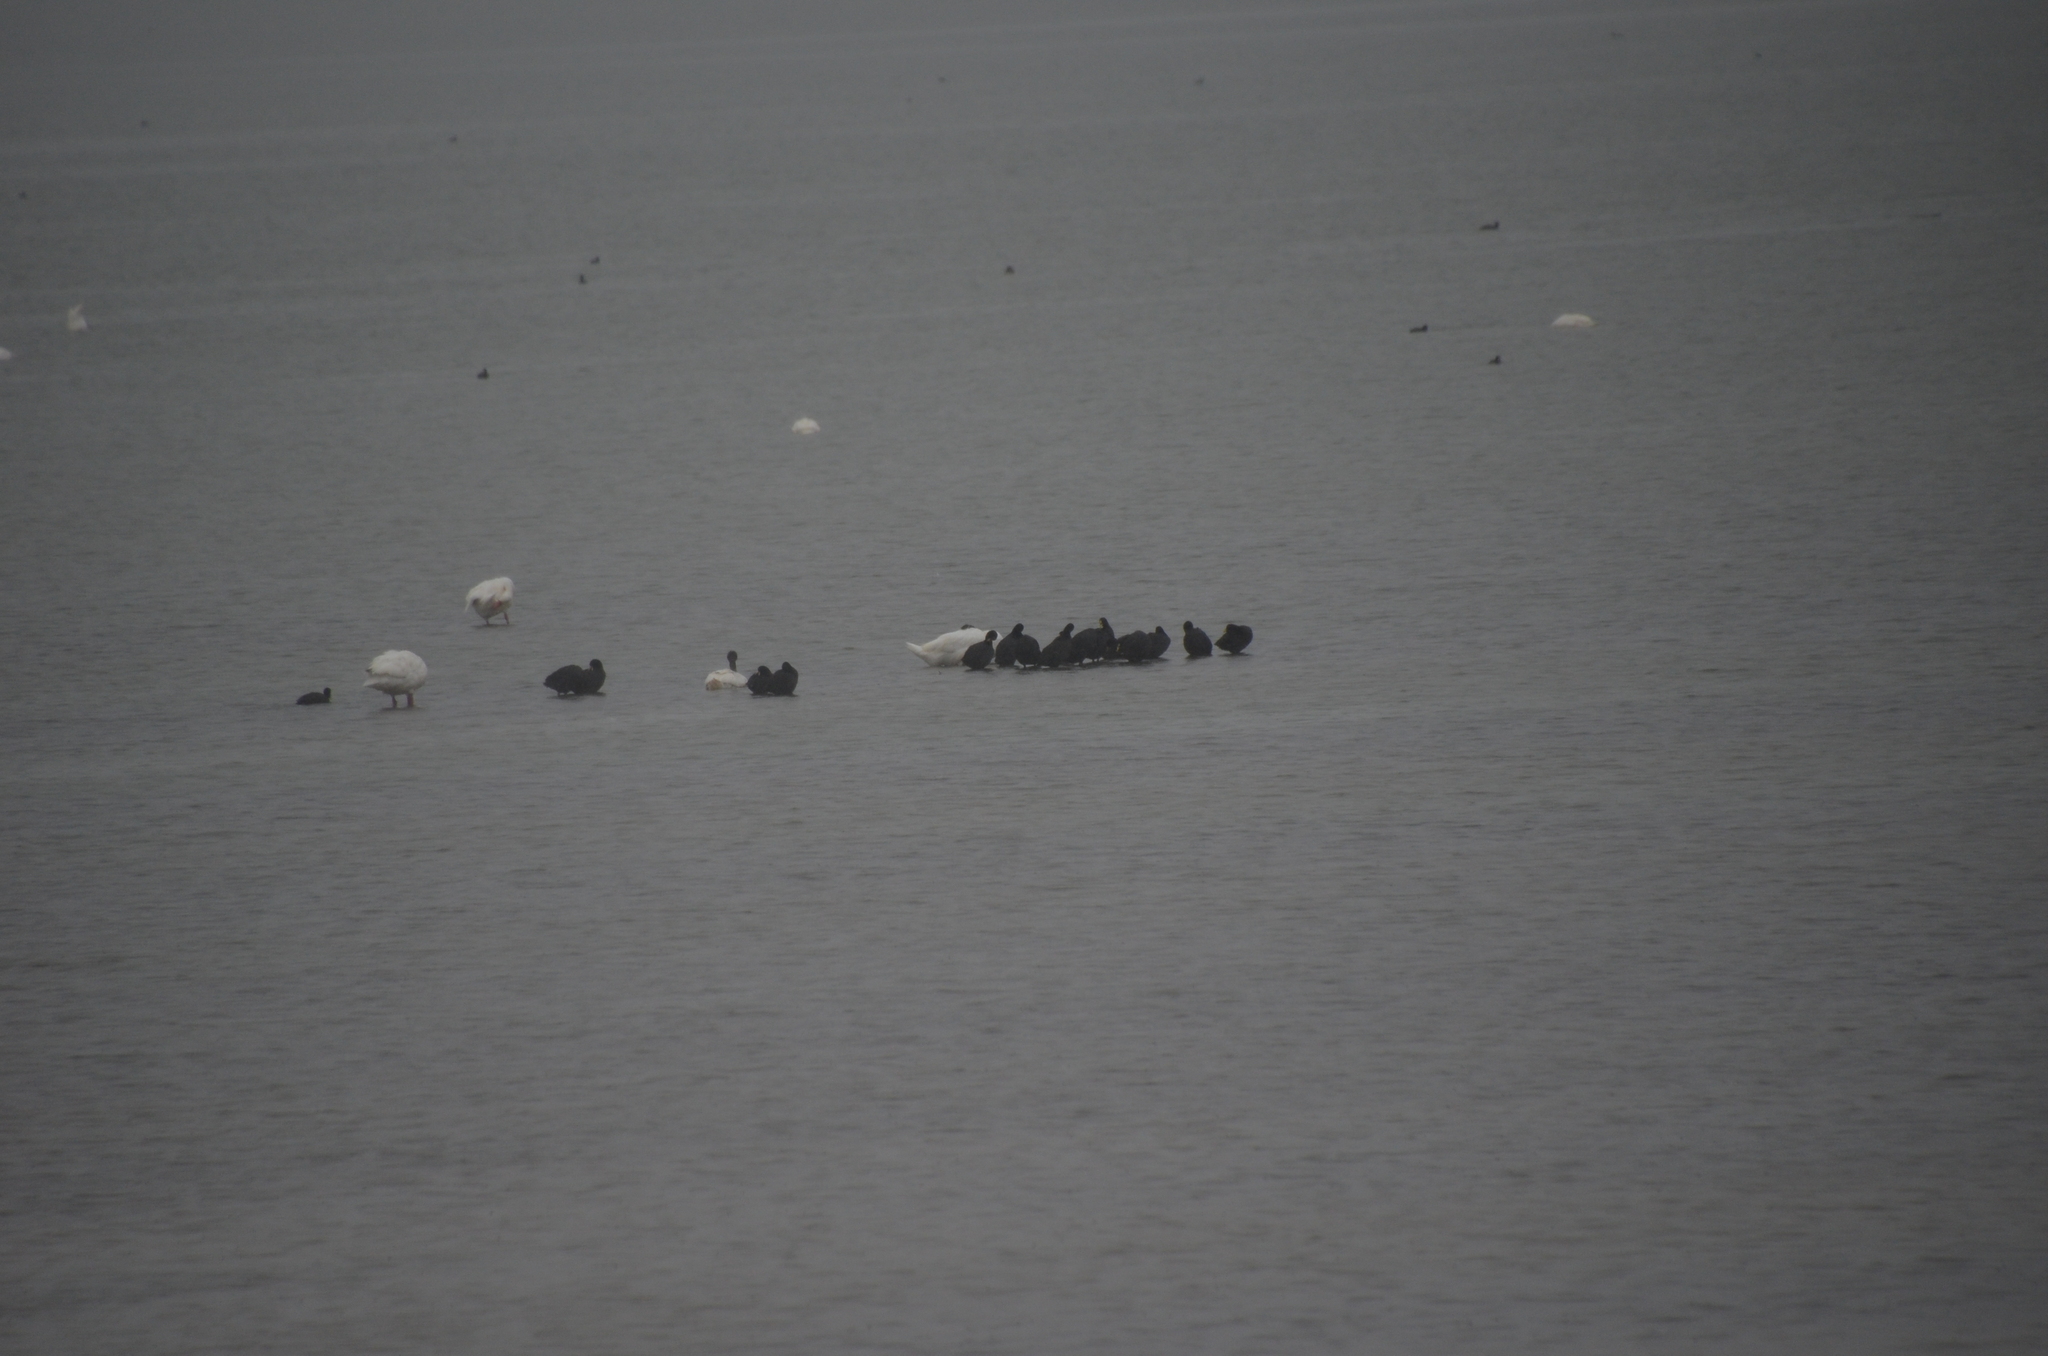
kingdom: Animalia
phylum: Chordata
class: Aves
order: Gruiformes
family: Rallidae
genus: Fulica
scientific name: Fulica armillata
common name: Red-gartered coot
